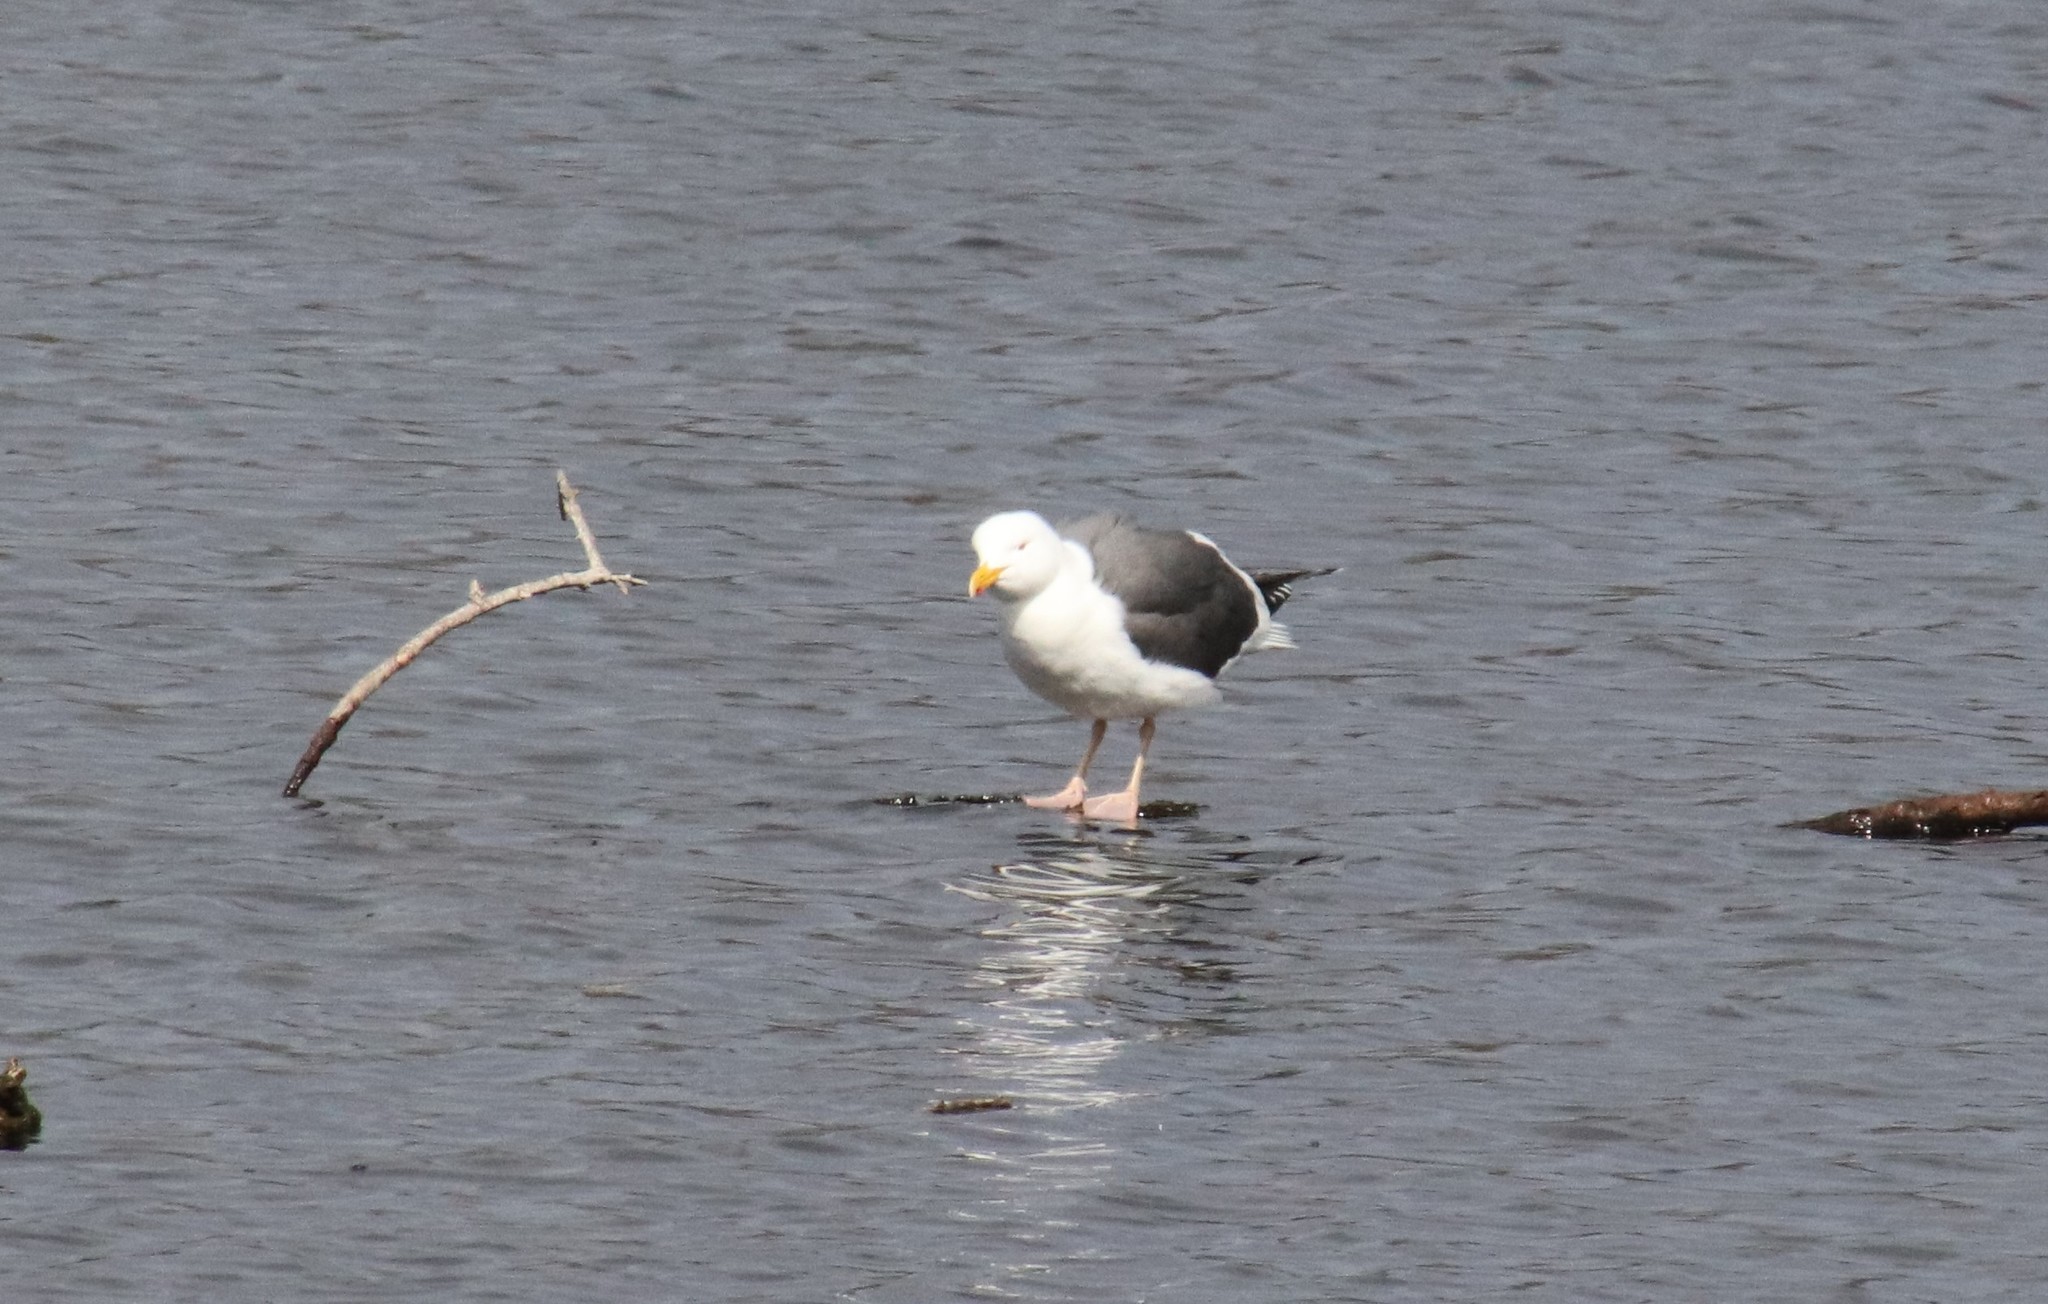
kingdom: Animalia
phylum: Chordata
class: Aves
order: Charadriiformes
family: Laridae
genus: Larus
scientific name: Larus occidentalis
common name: Western gull
